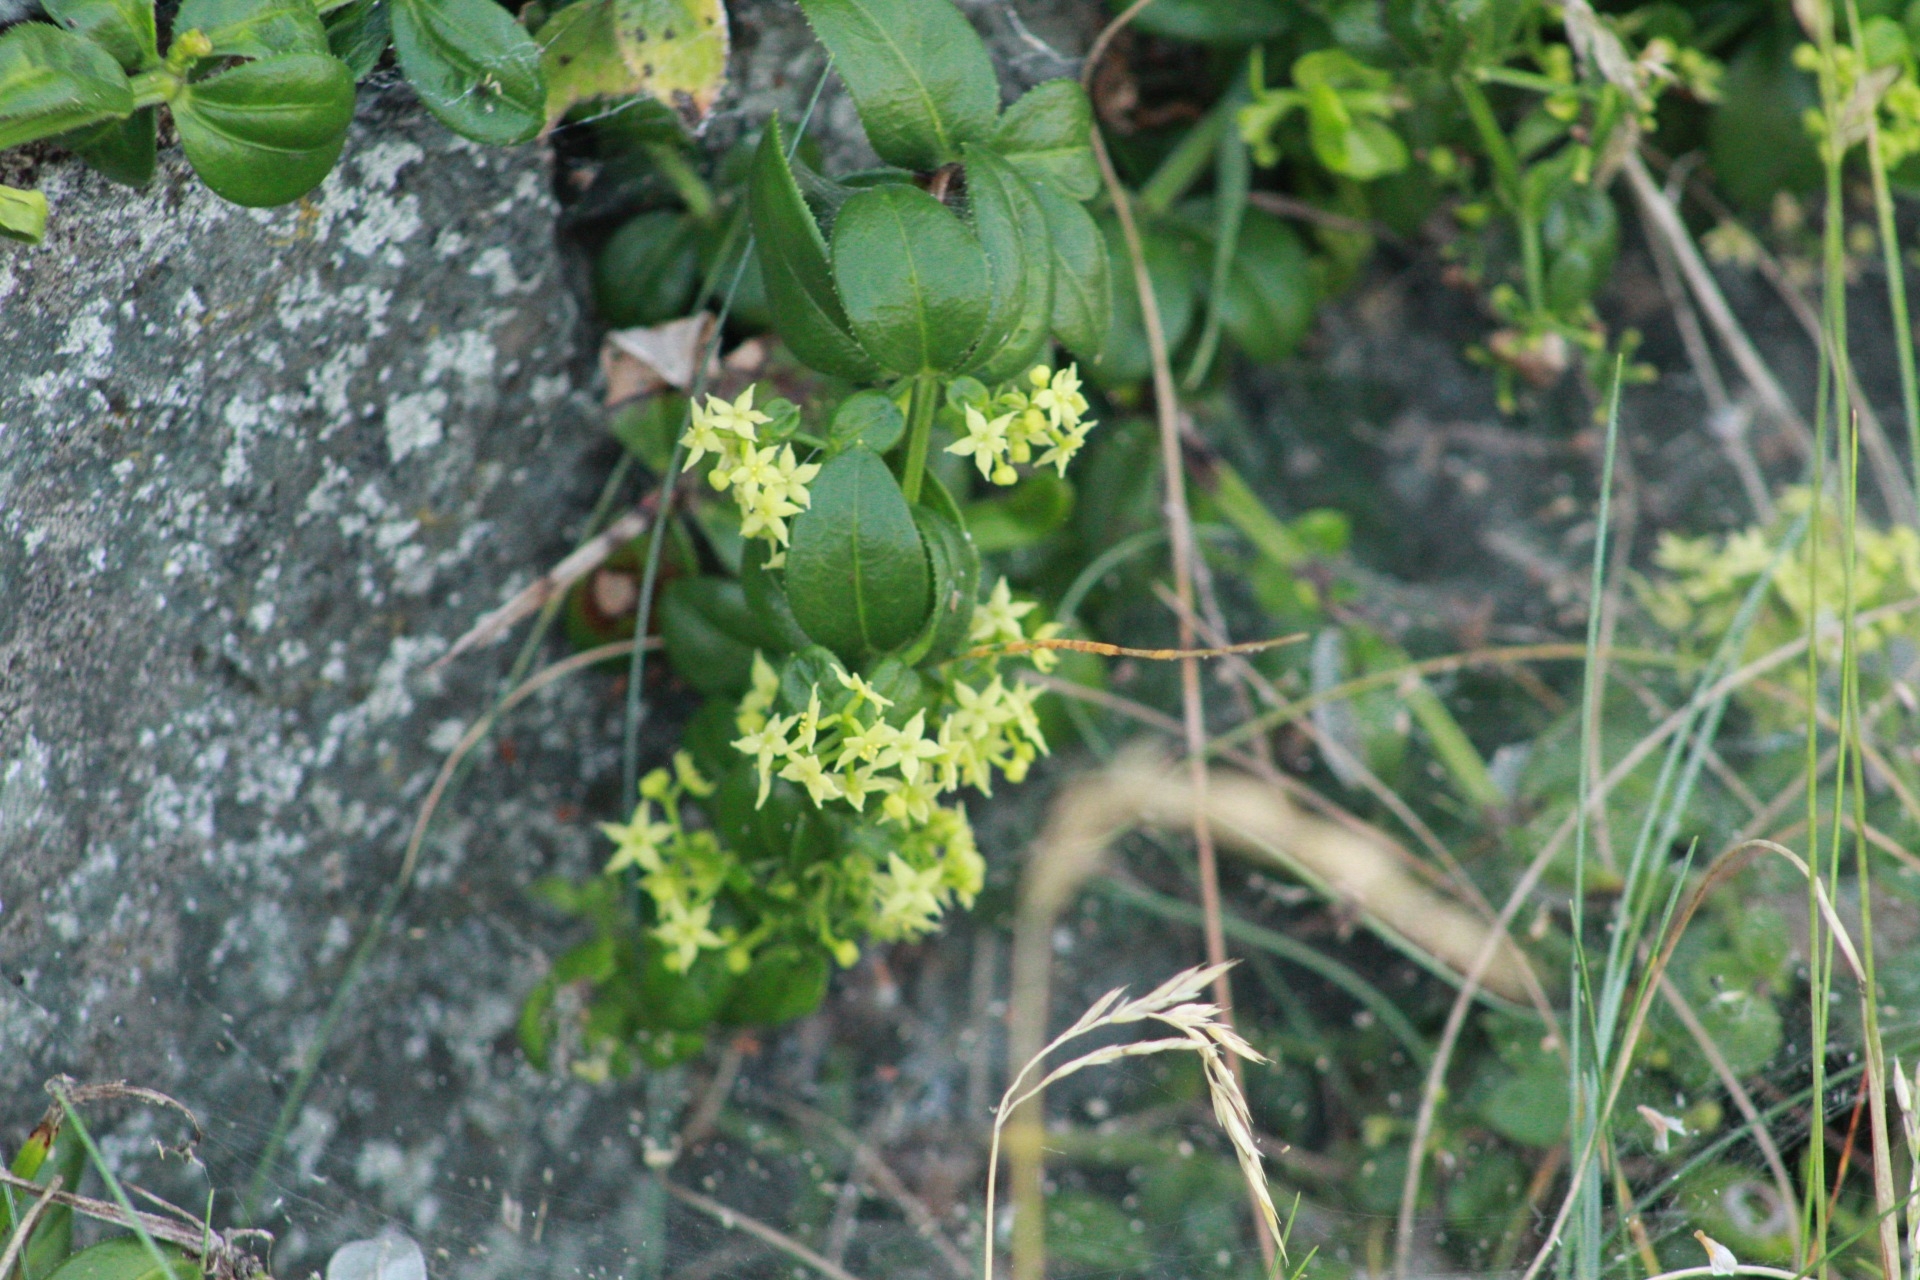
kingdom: Plantae
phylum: Tracheophyta
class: Magnoliopsida
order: Gentianales
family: Rubiaceae
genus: Rubia
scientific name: Rubia peregrina
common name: Wild madder
